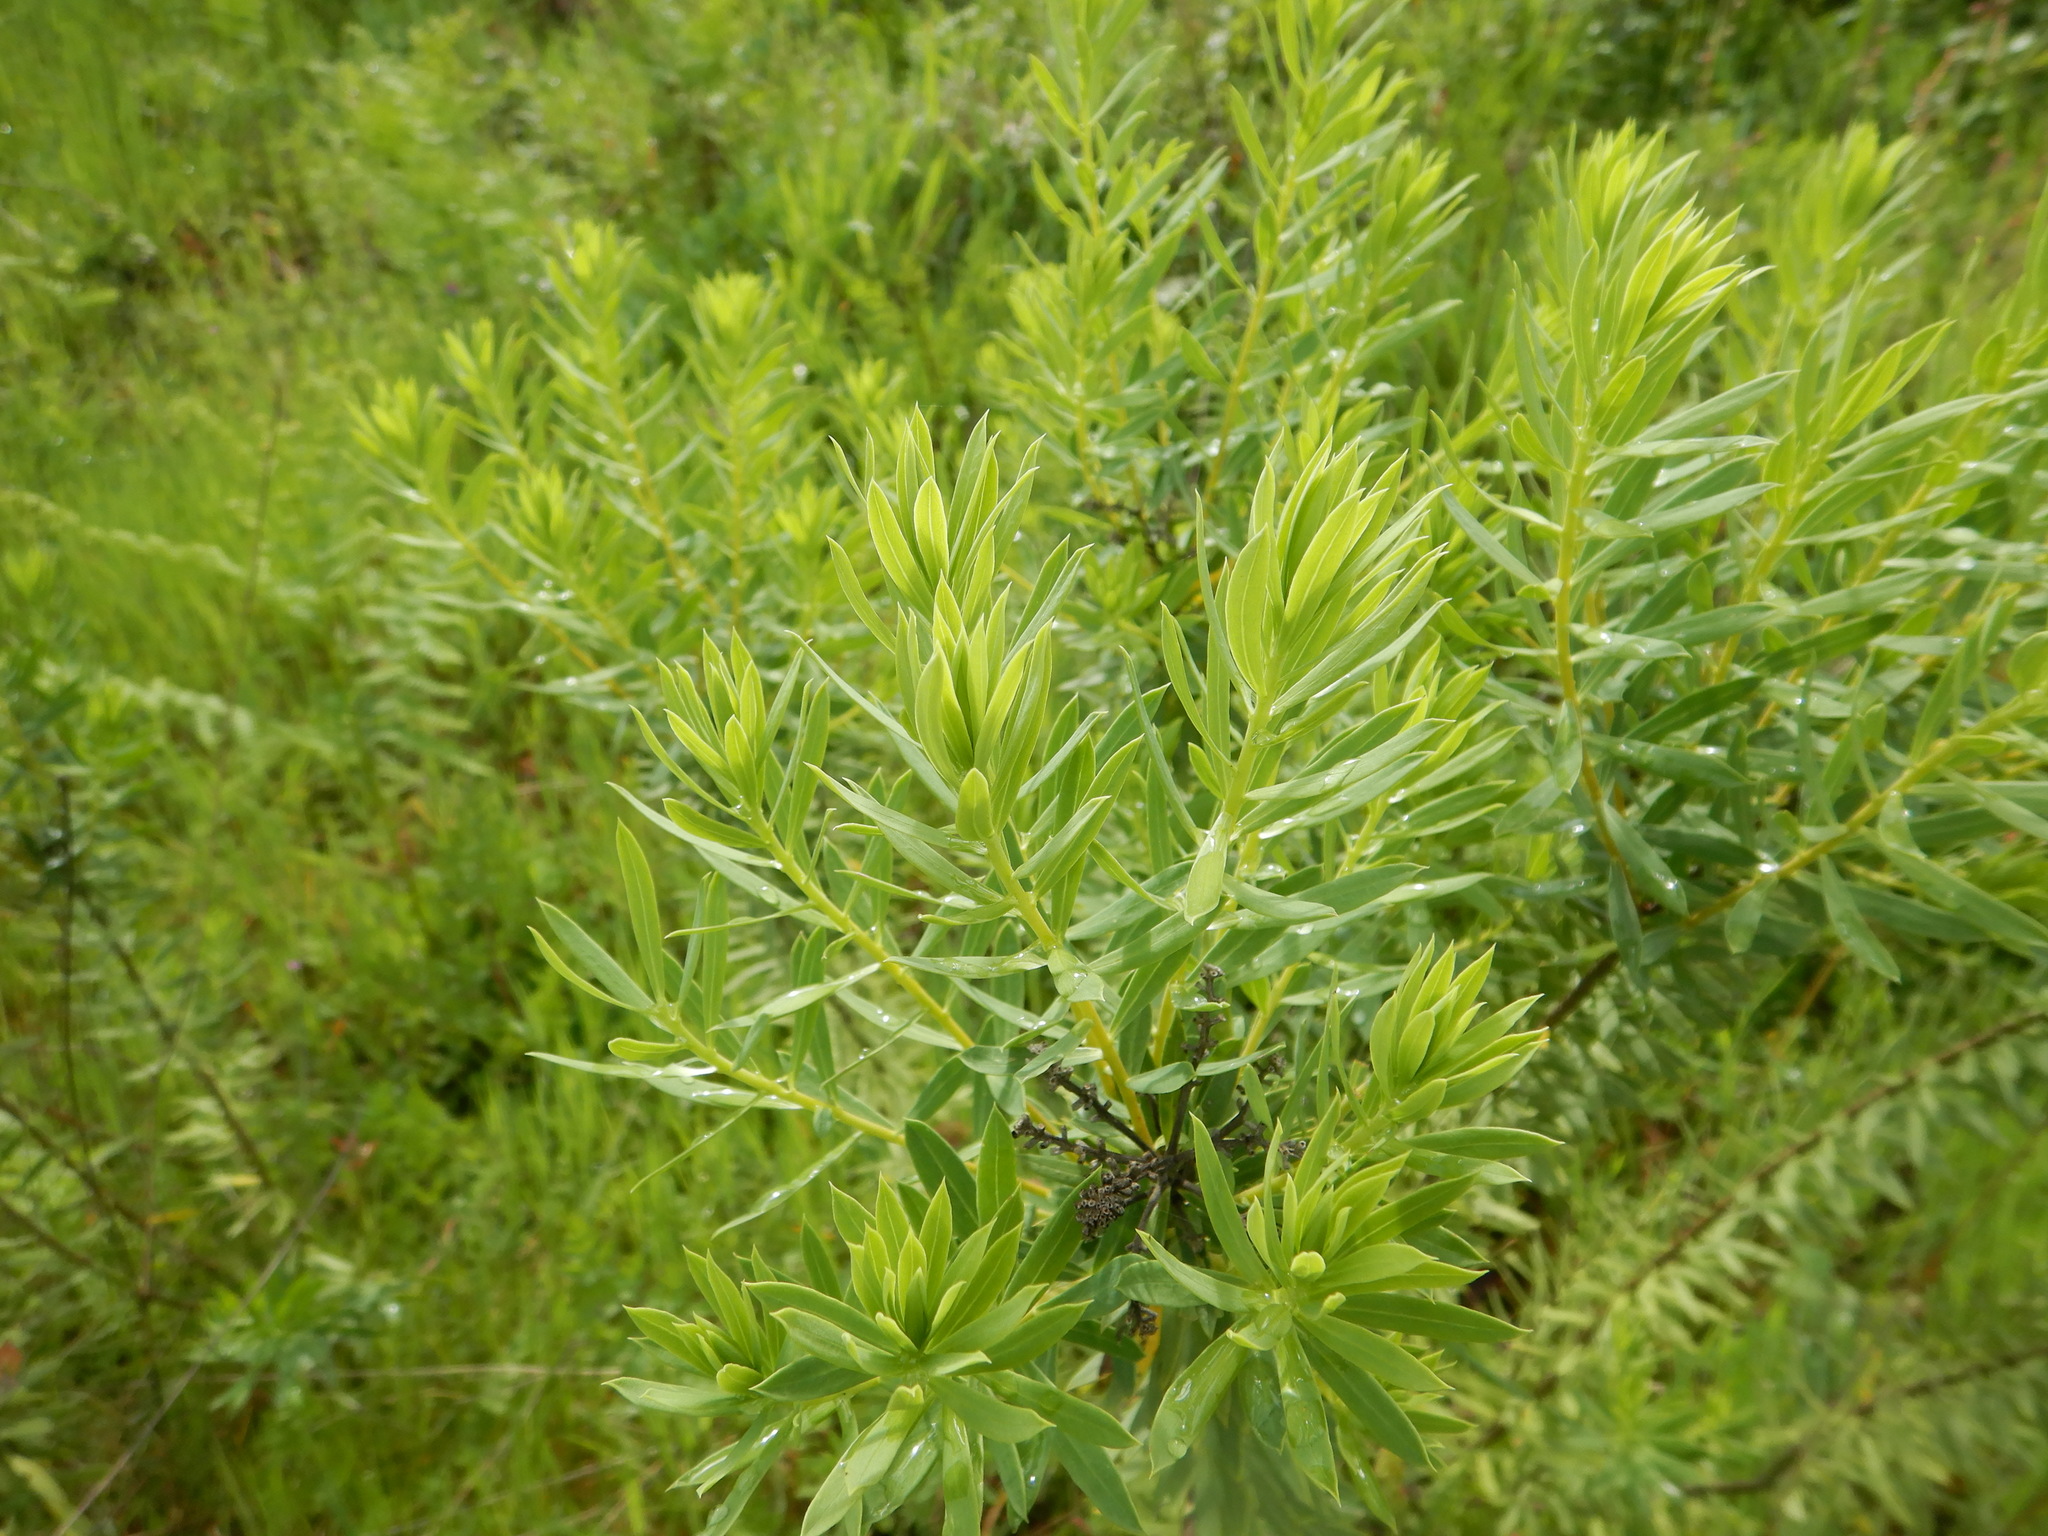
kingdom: Plantae
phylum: Tracheophyta
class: Magnoliopsida
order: Malvales
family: Thymelaeaceae
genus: Daphne
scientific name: Daphne gnidium
